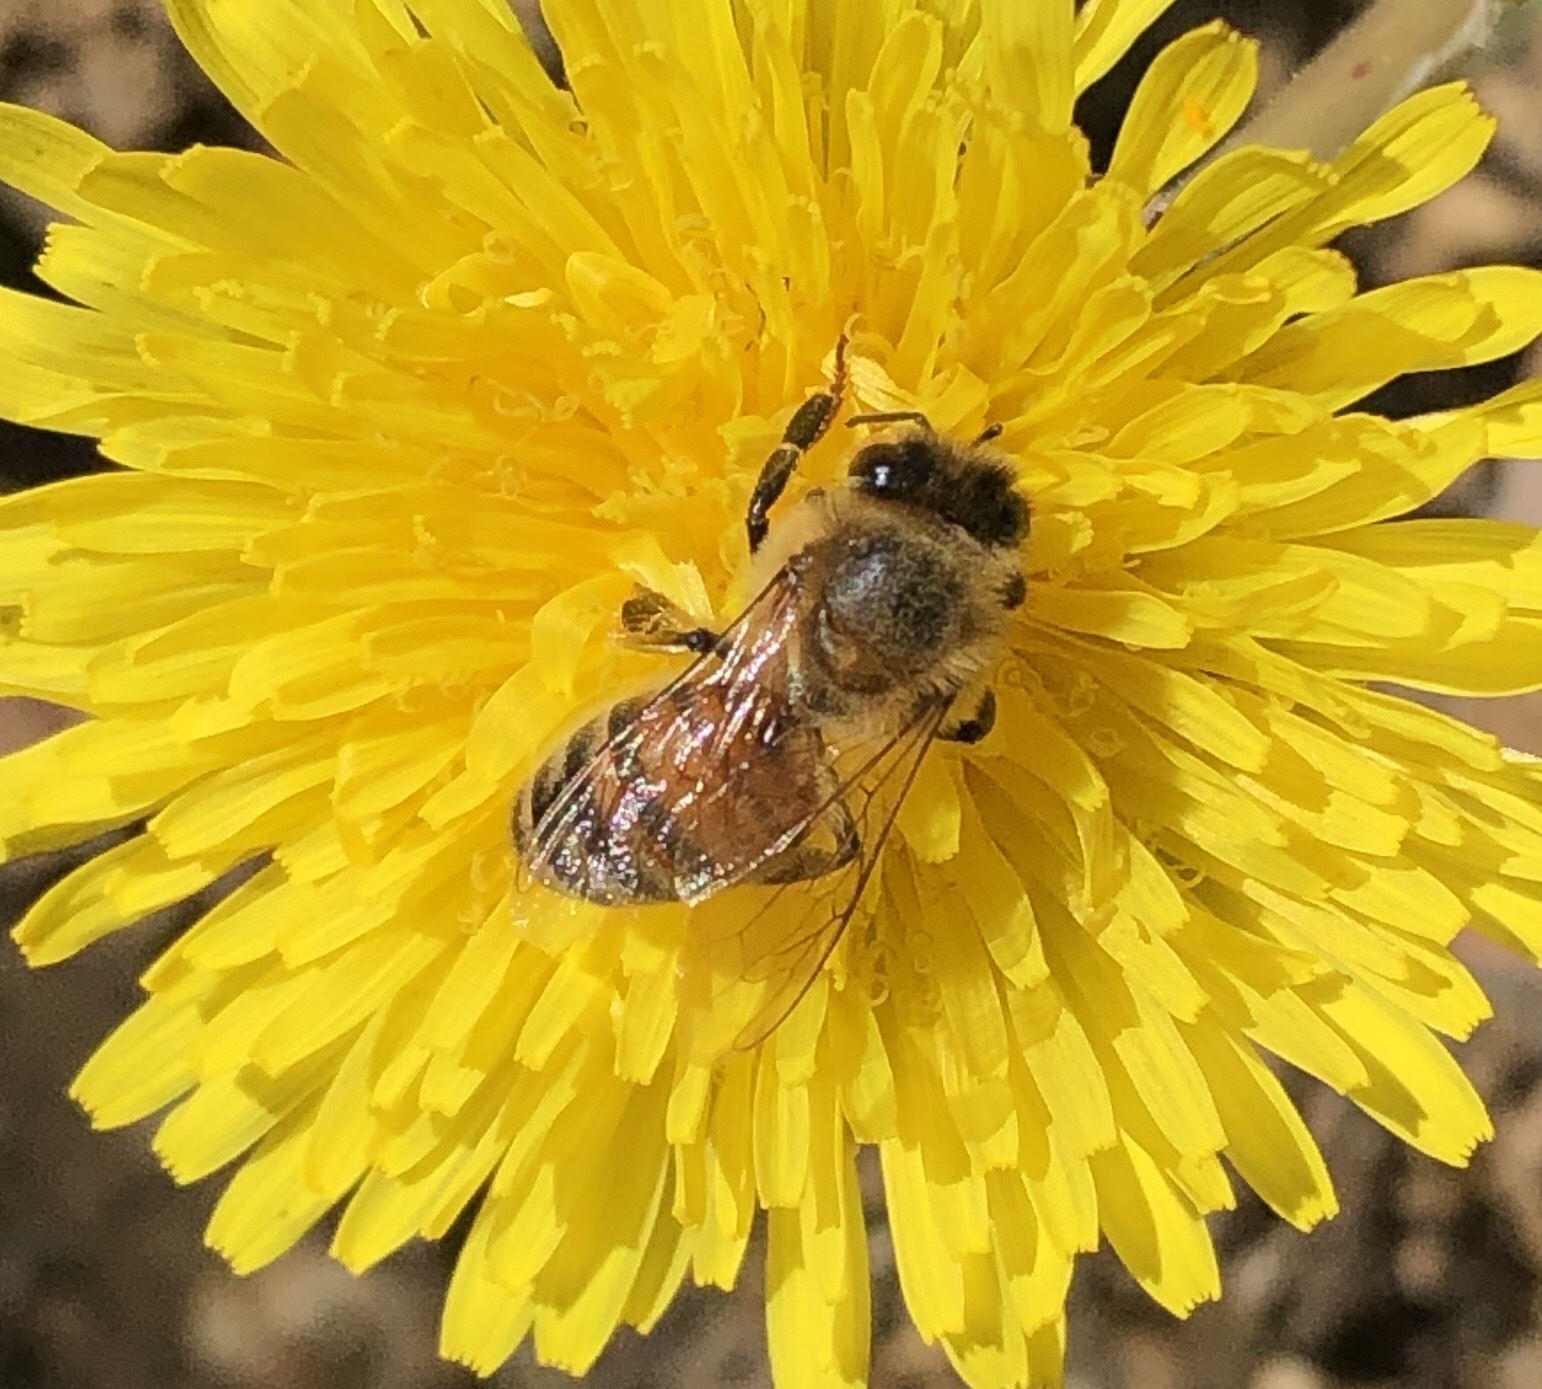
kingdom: Animalia
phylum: Arthropoda
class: Insecta
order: Hymenoptera
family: Apidae
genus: Apis
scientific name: Apis mellifera
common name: Honey bee
